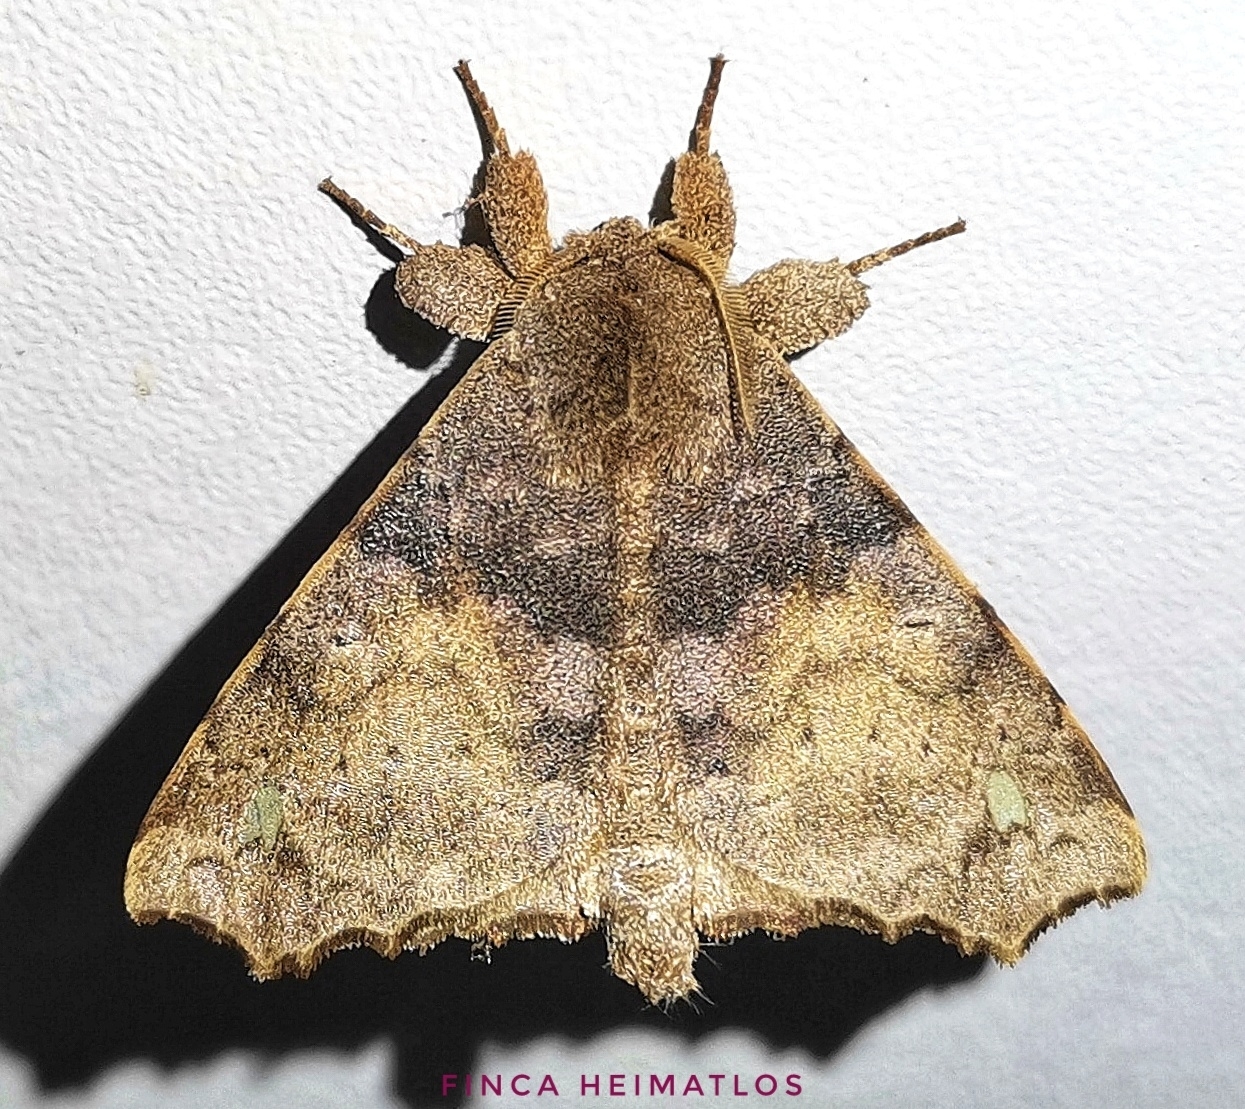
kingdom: Animalia
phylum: Arthropoda
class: Insecta
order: Lepidoptera
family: Apatelodidae
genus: Olceclostera
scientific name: Olceclostera brama
